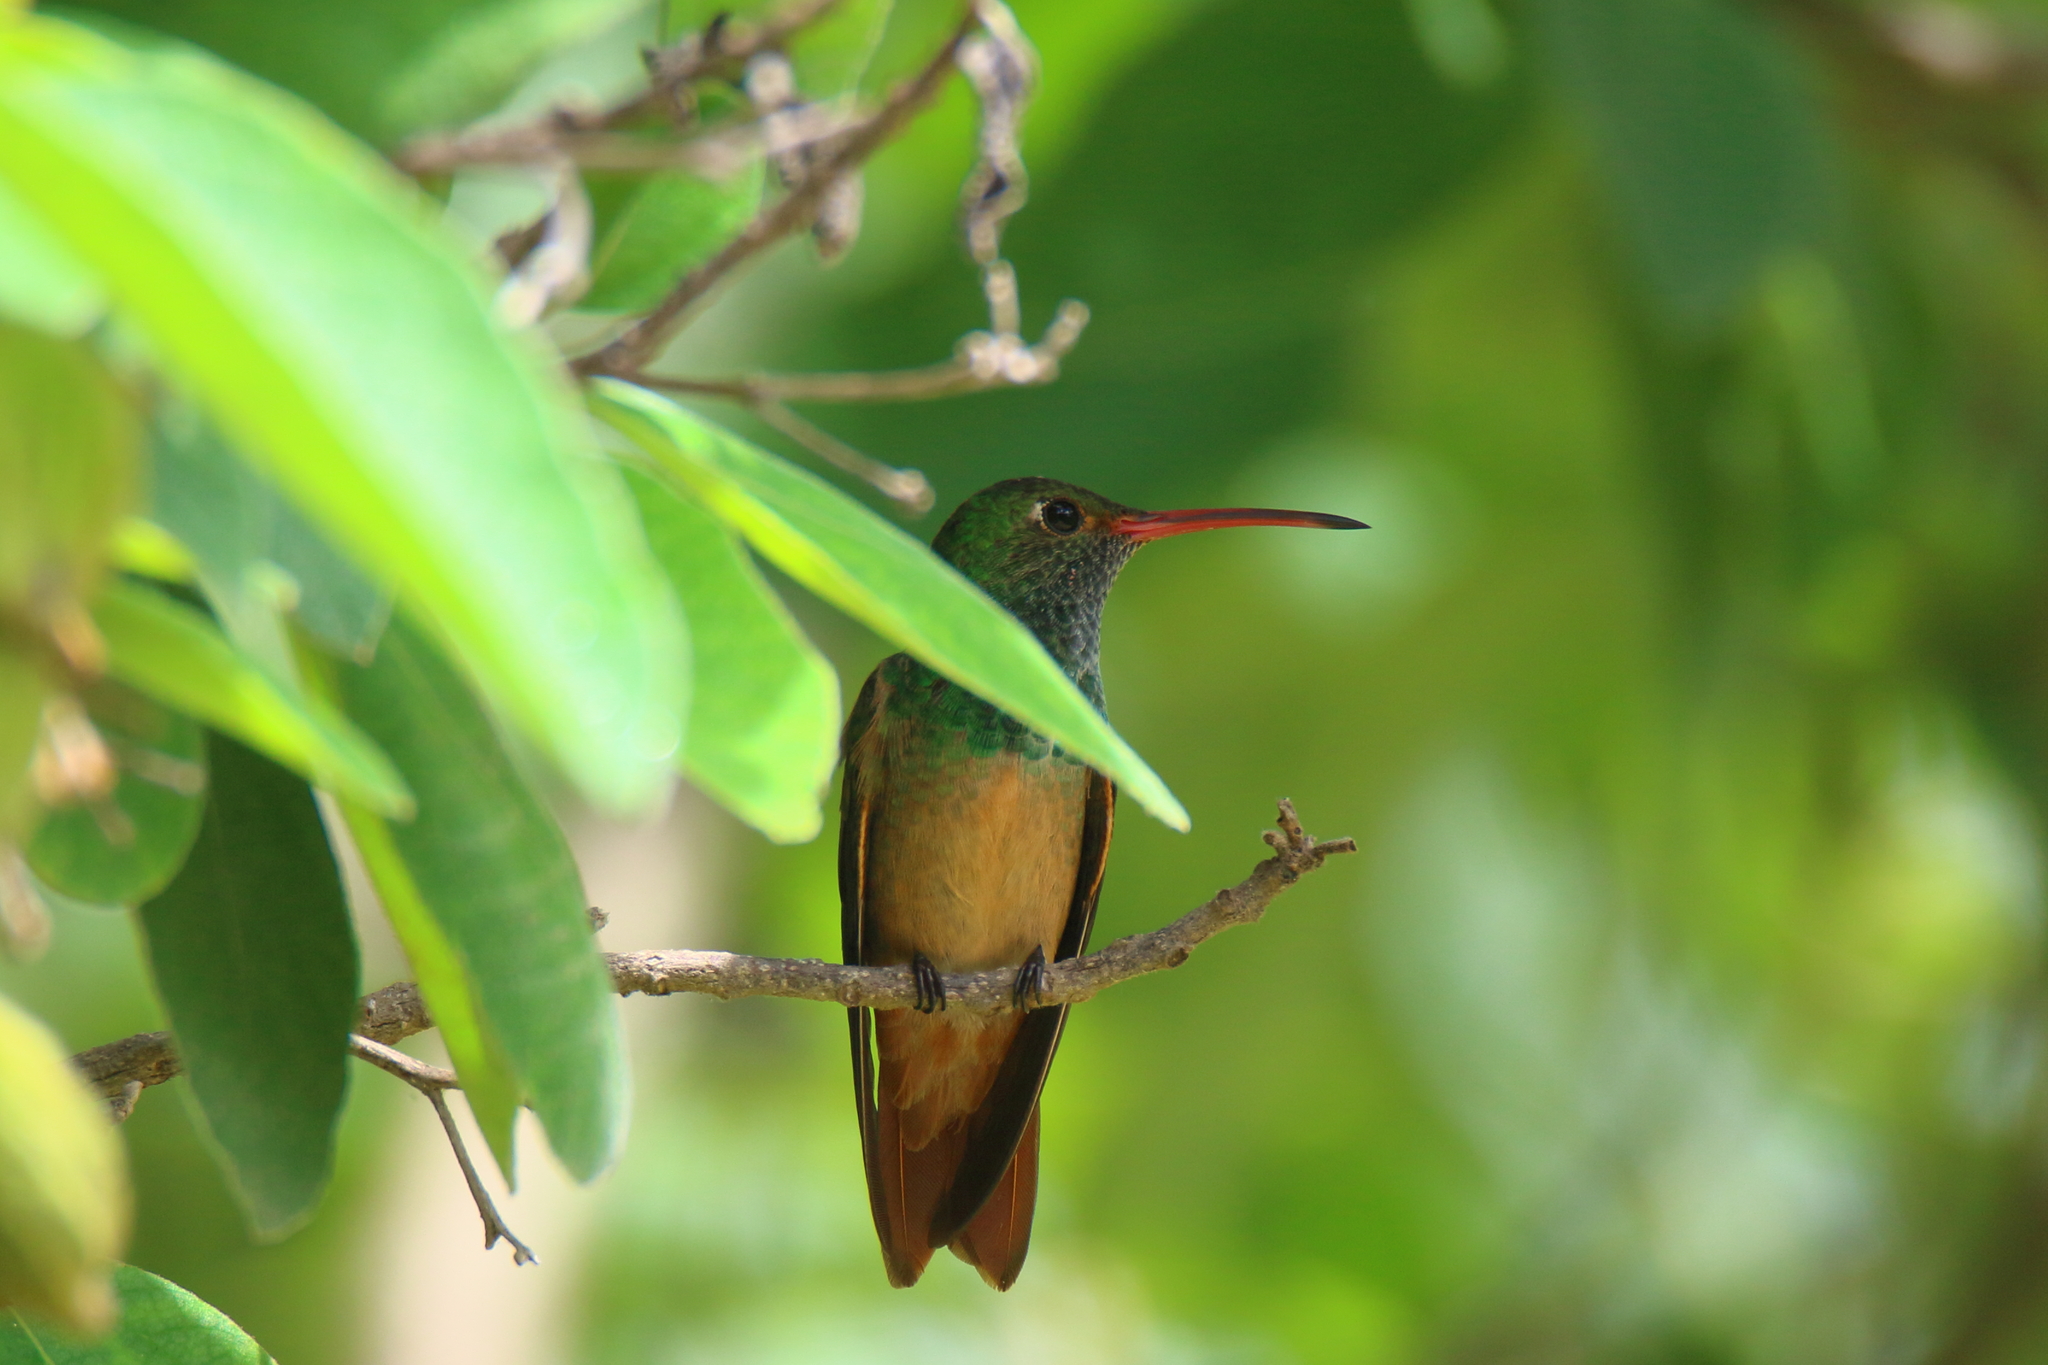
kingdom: Animalia
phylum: Chordata
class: Aves
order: Apodiformes
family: Trochilidae
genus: Amazilia
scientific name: Amazilia yucatanensis
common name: Buff-bellied hummingbird
